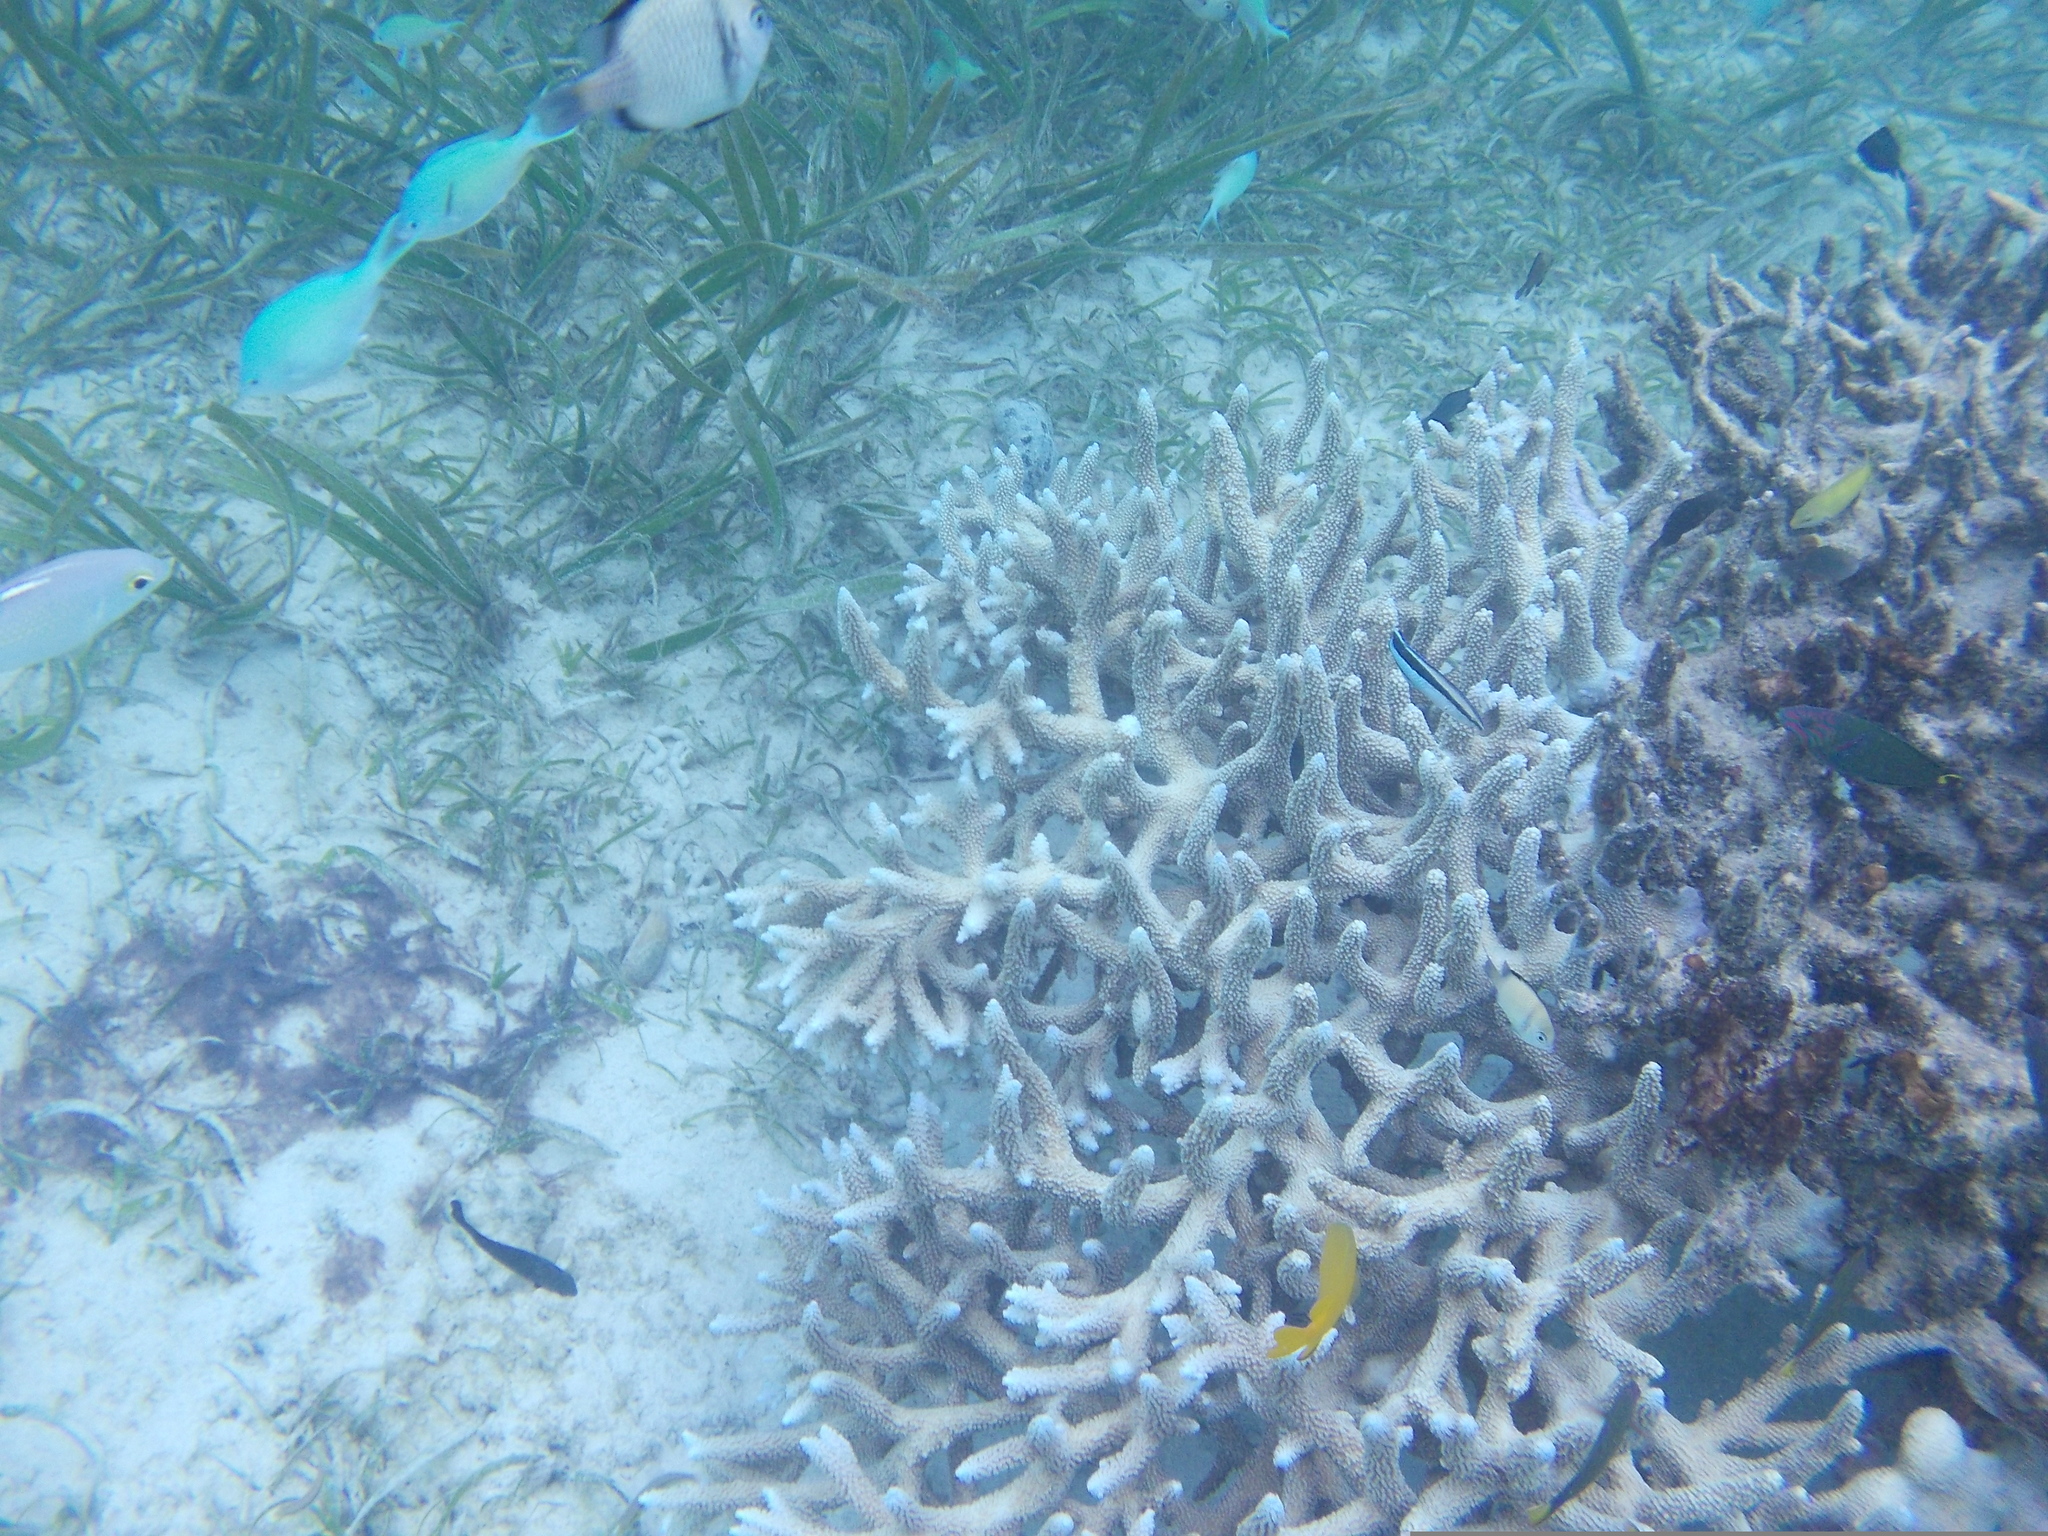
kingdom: Animalia
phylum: Chordata
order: Perciformes
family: Labridae
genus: Labroides
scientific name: Labroides dimidiatus
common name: Blue diesel wrasse
